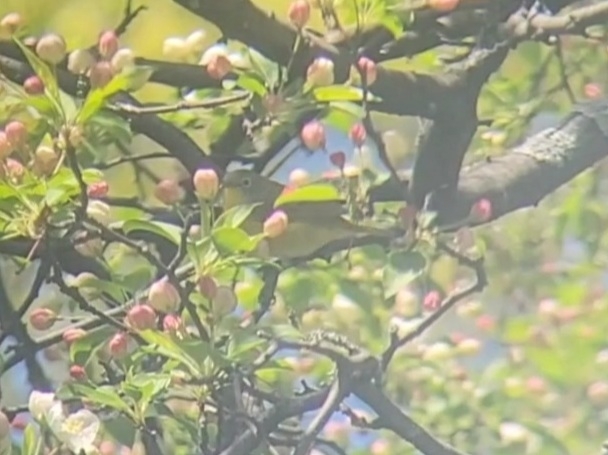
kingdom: Animalia
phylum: Chordata
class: Aves
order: Passeriformes
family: Parulidae
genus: Leiothlypis
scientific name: Leiothlypis ruficapilla
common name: Nashville warbler
